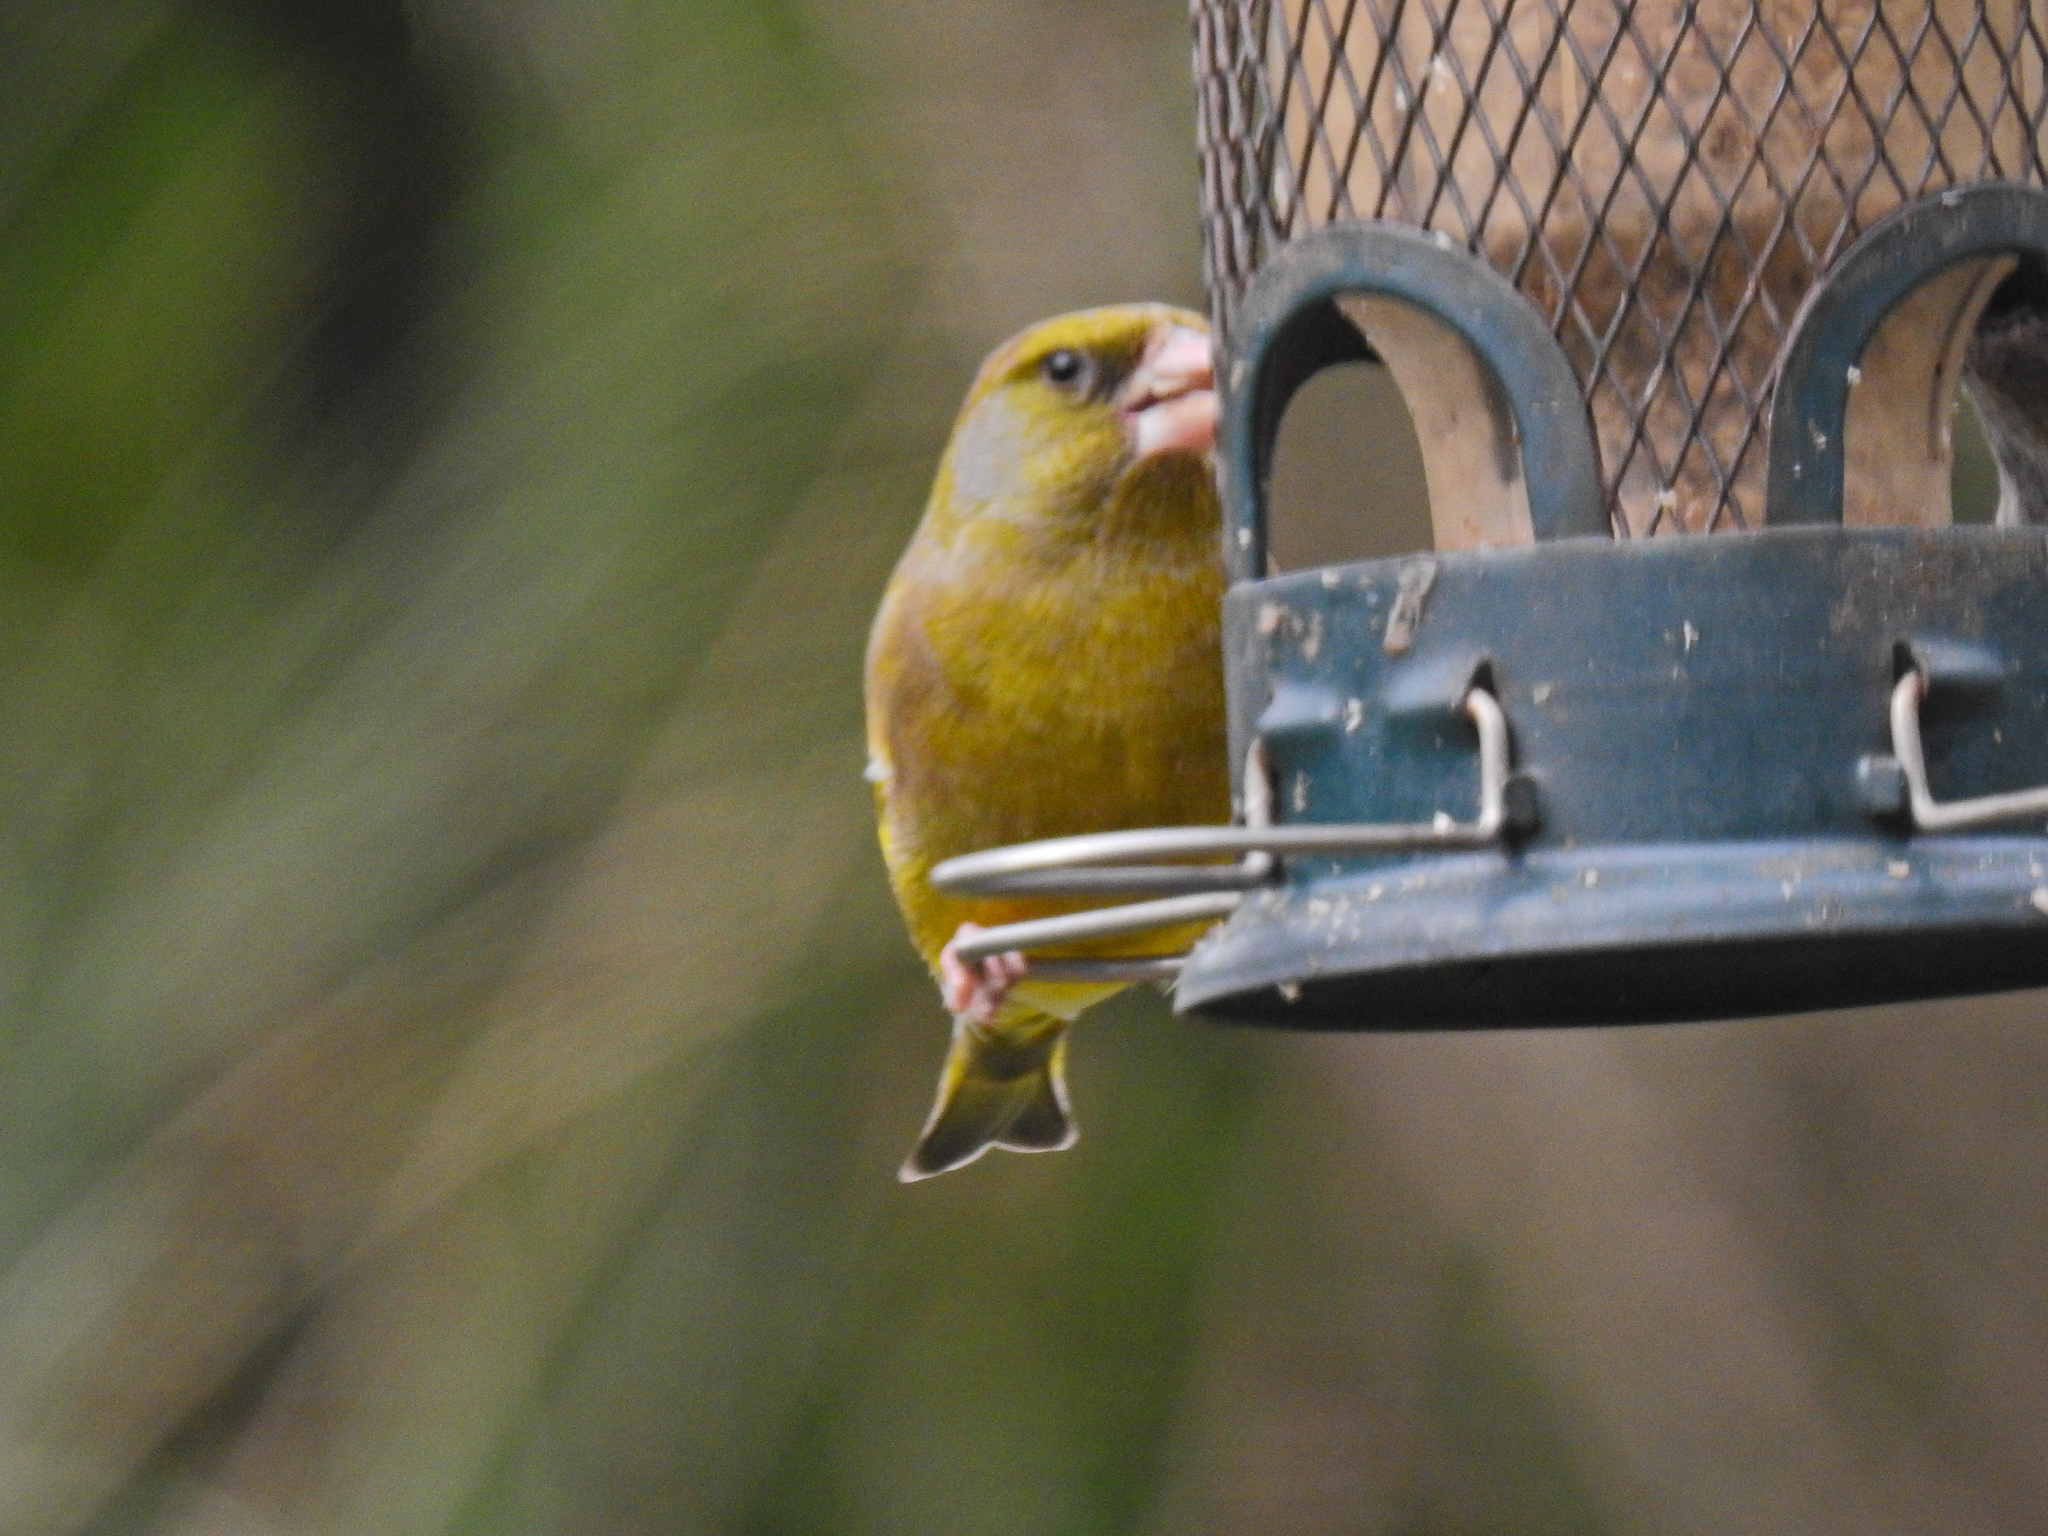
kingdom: Plantae
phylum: Tracheophyta
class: Liliopsida
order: Poales
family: Poaceae
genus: Chloris
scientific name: Chloris chloris
